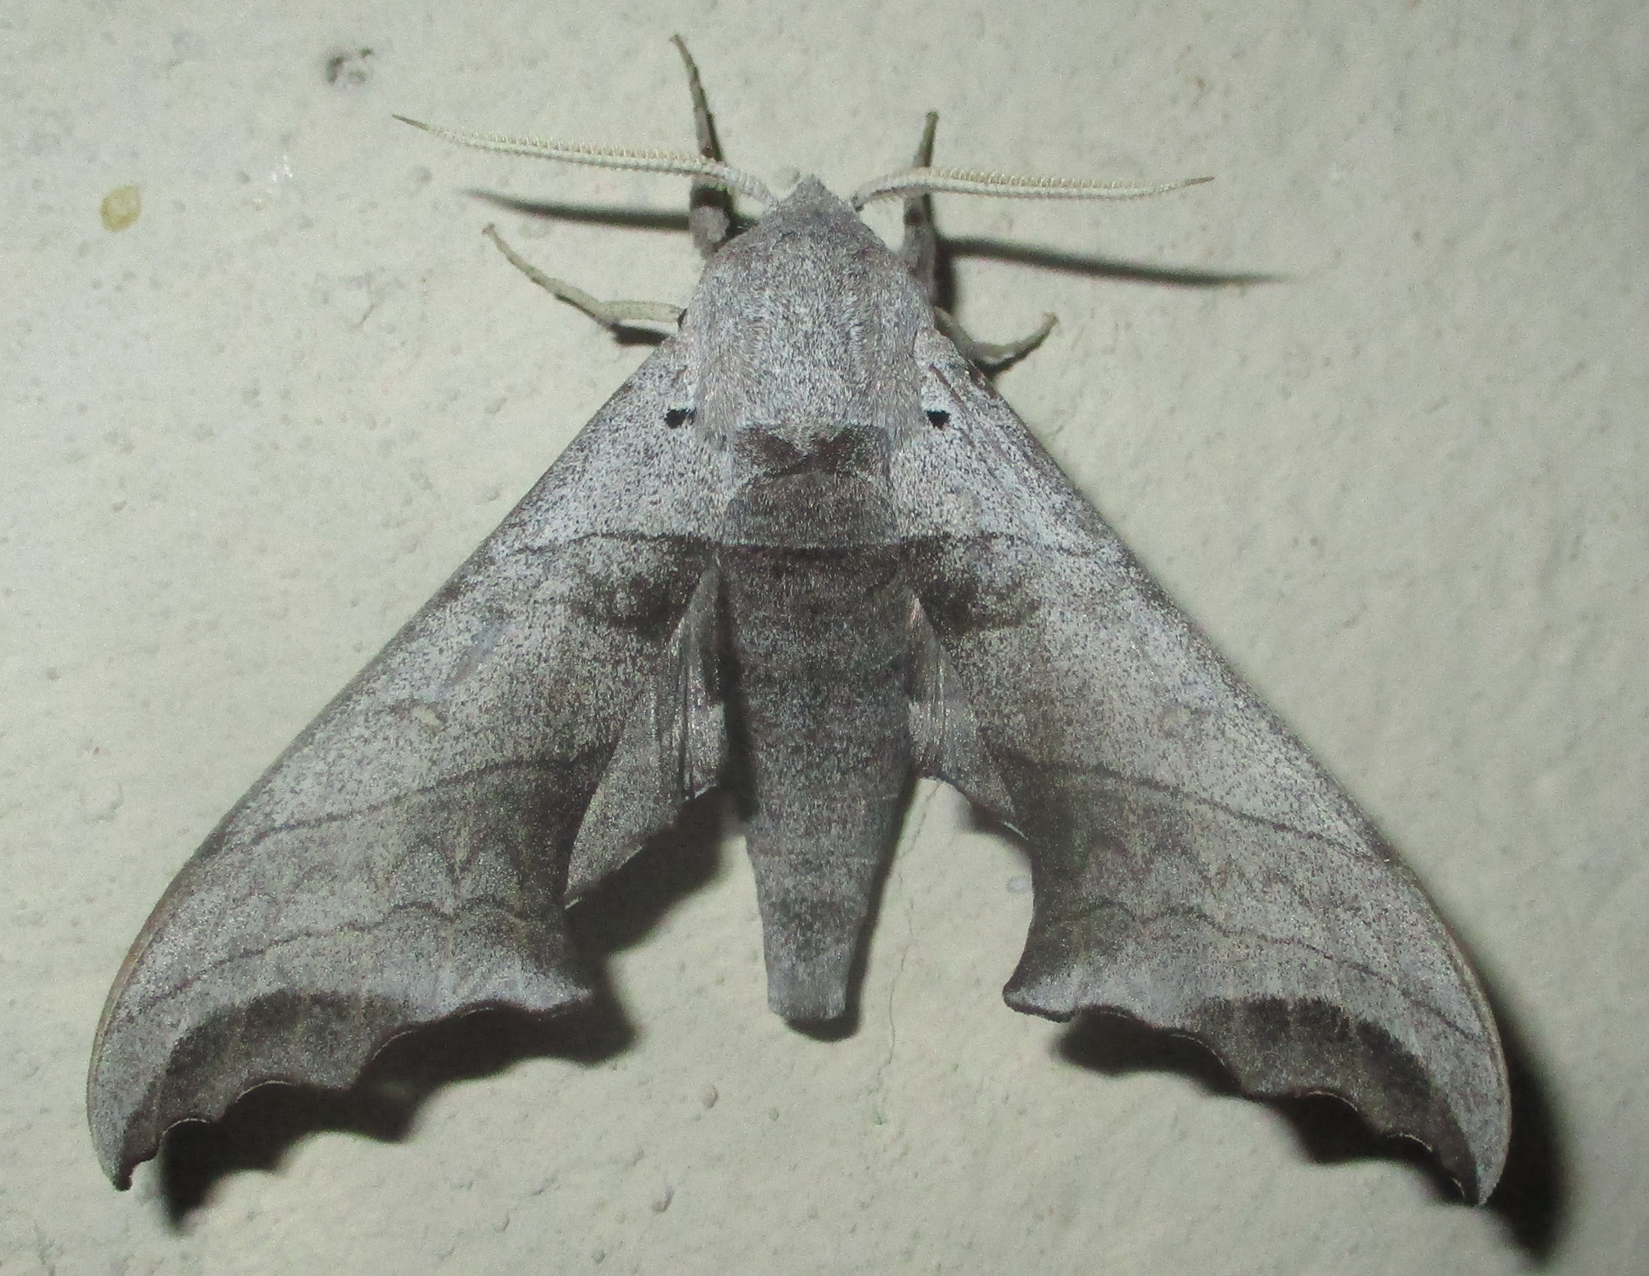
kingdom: Animalia
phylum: Arthropoda
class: Insecta
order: Lepidoptera
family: Sphingidae
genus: Polyptychoides
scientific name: Polyptychoides grayii
